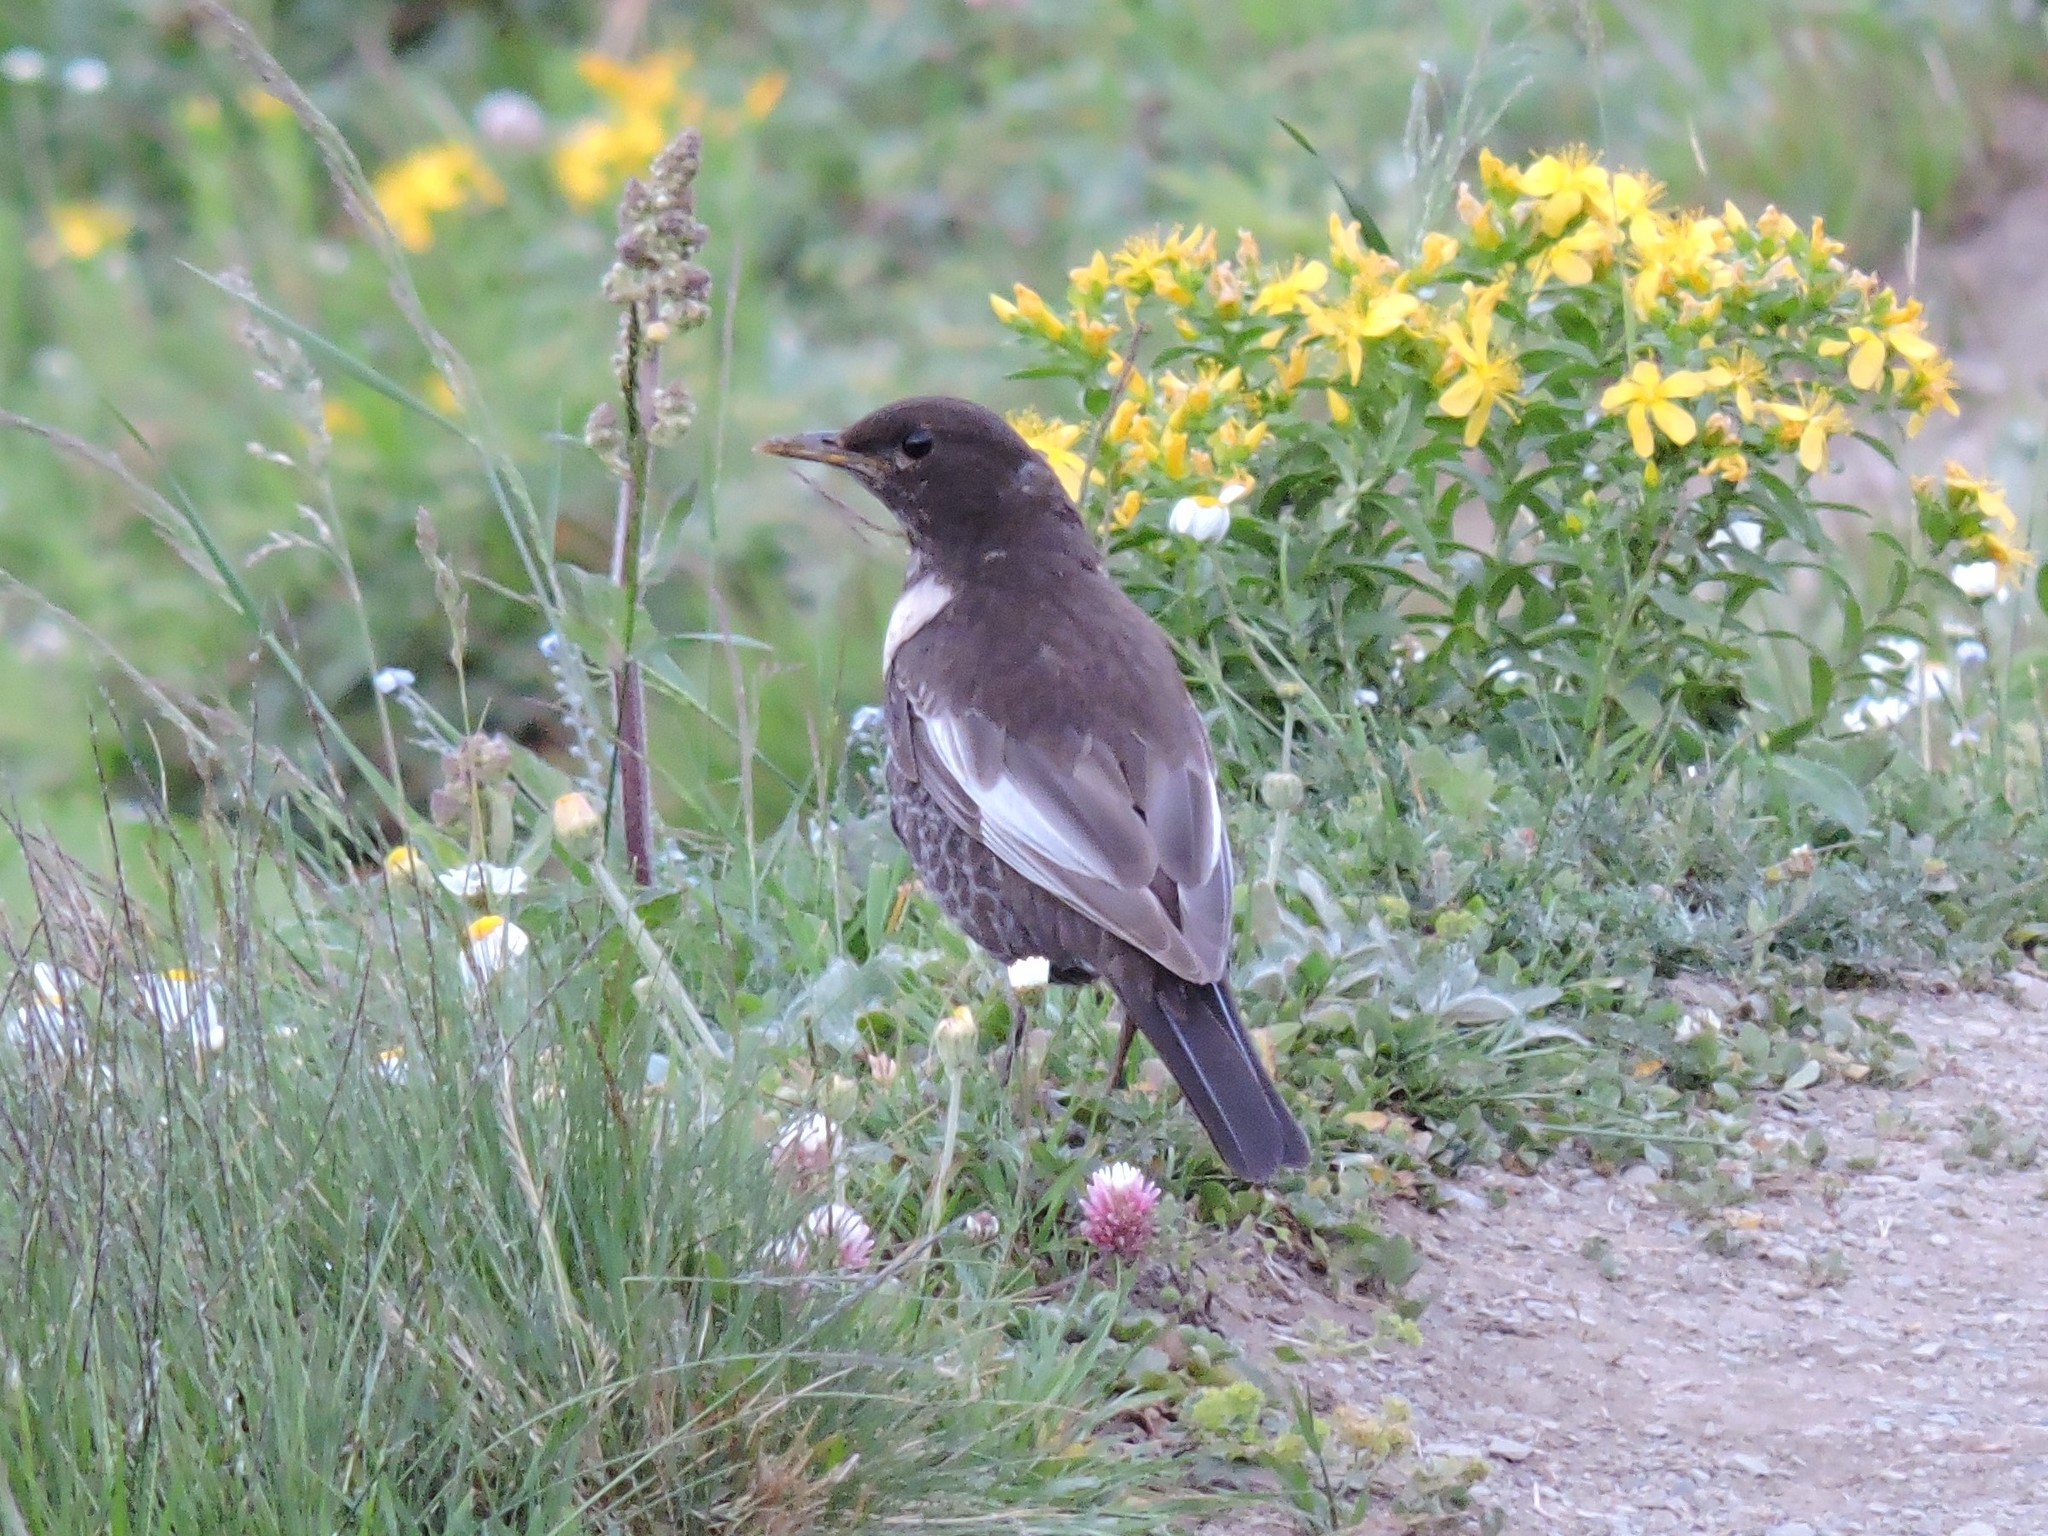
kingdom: Animalia
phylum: Chordata
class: Aves
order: Passeriformes
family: Turdidae
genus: Turdus
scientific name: Turdus torquatus
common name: Ring ouzel
